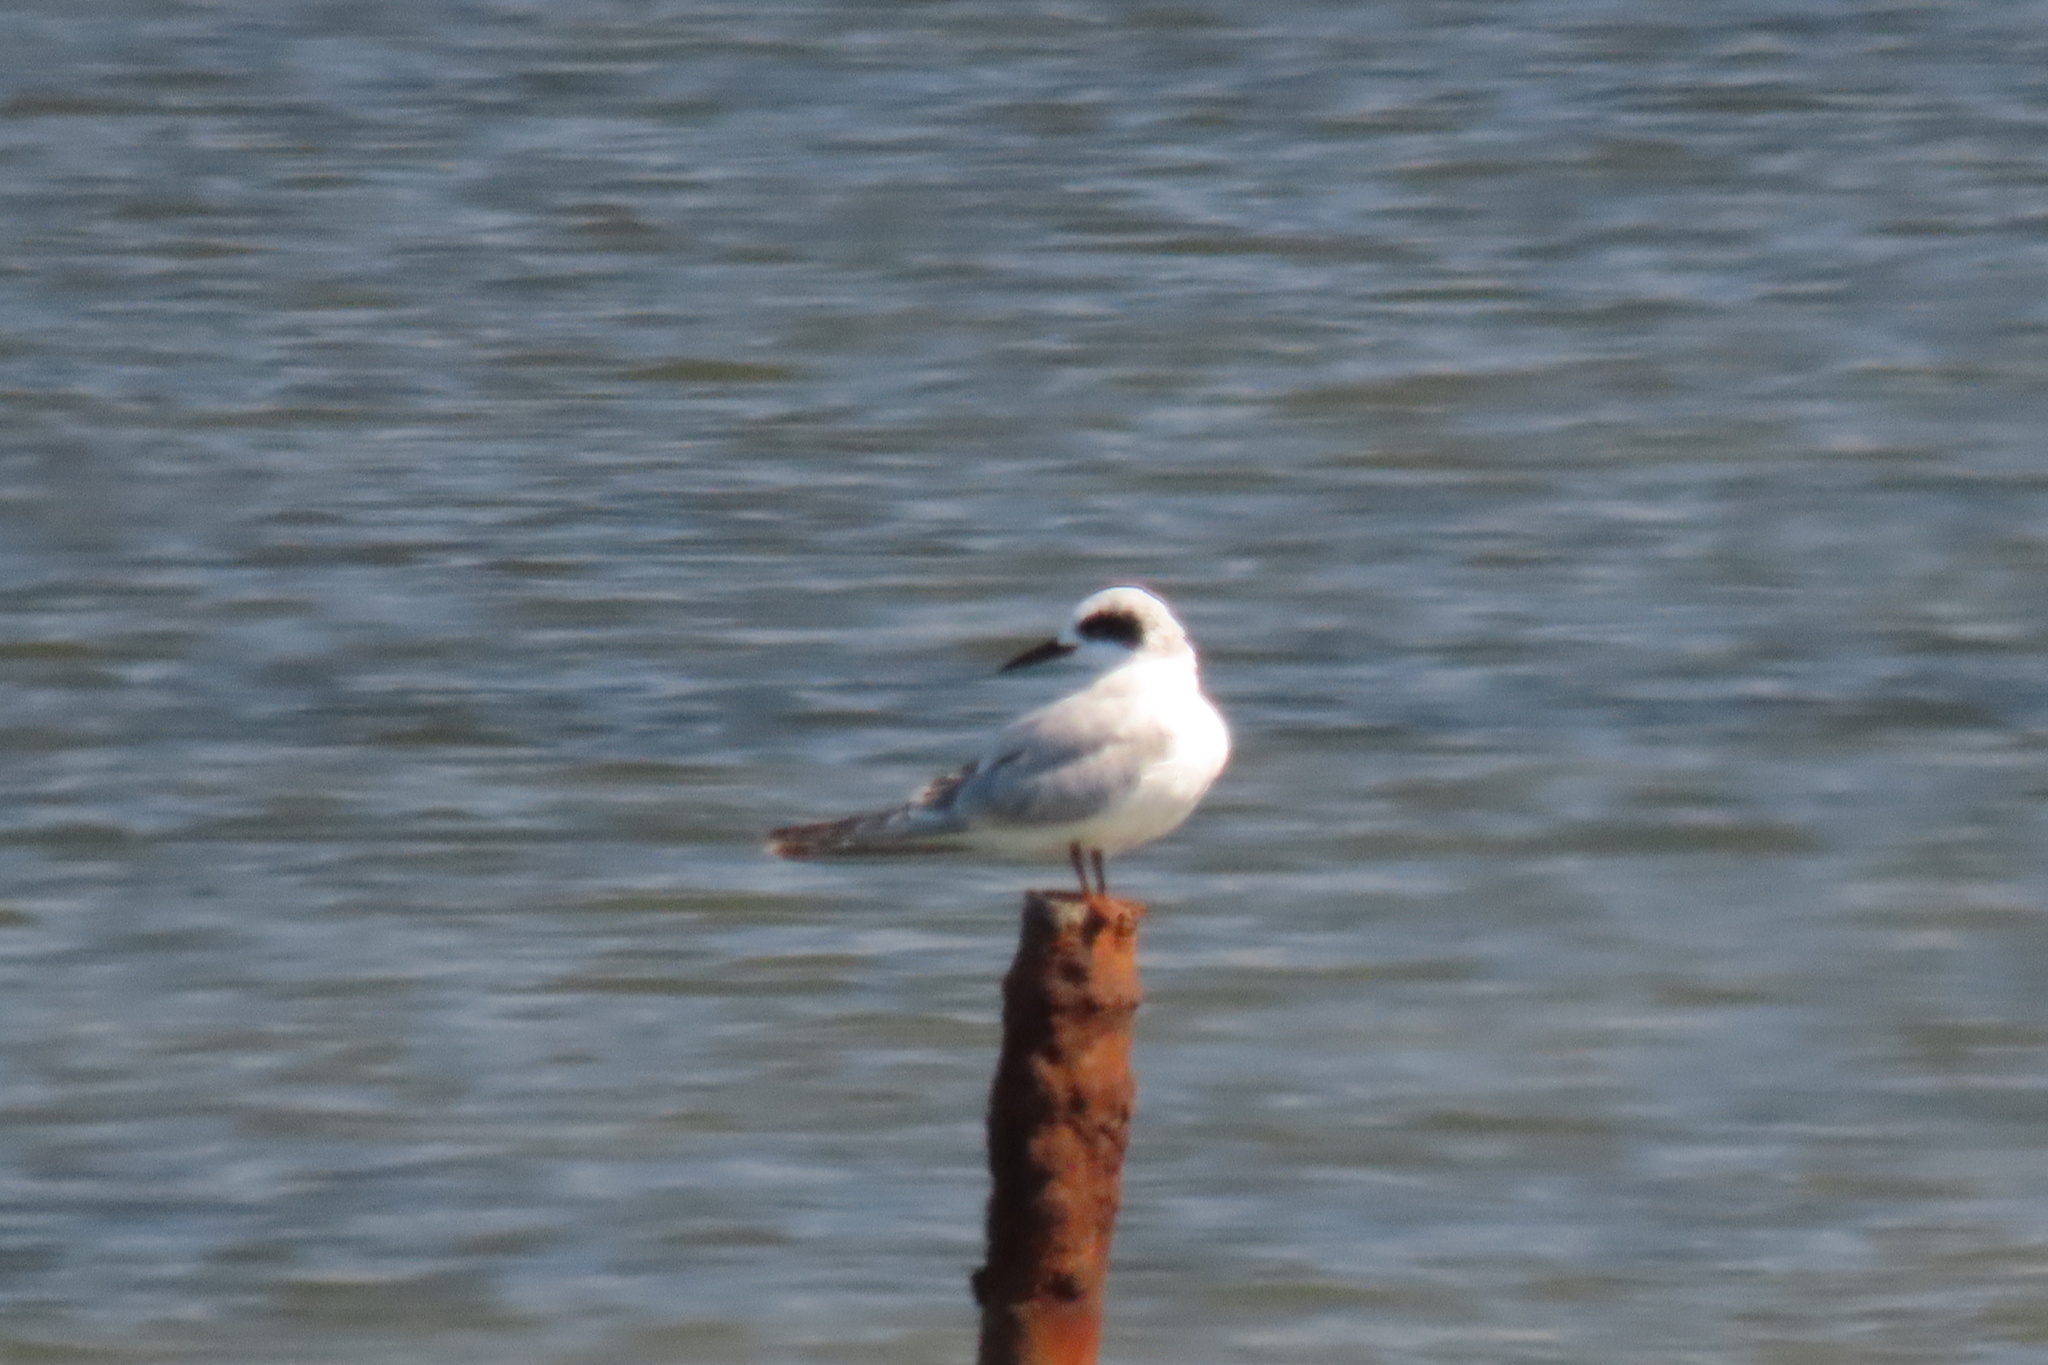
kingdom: Animalia
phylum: Chordata
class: Aves
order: Charadriiformes
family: Laridae
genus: Sterna
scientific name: Sterna forsteri
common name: Forster's tern
